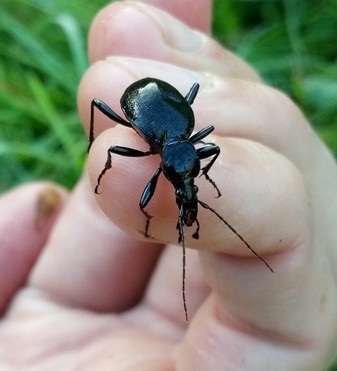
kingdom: Animalia
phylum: Arthropoda
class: Insecta
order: Coleoptera
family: Carabidae
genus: Cychrus
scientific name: Cychrus caraboides
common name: Snail hunter
